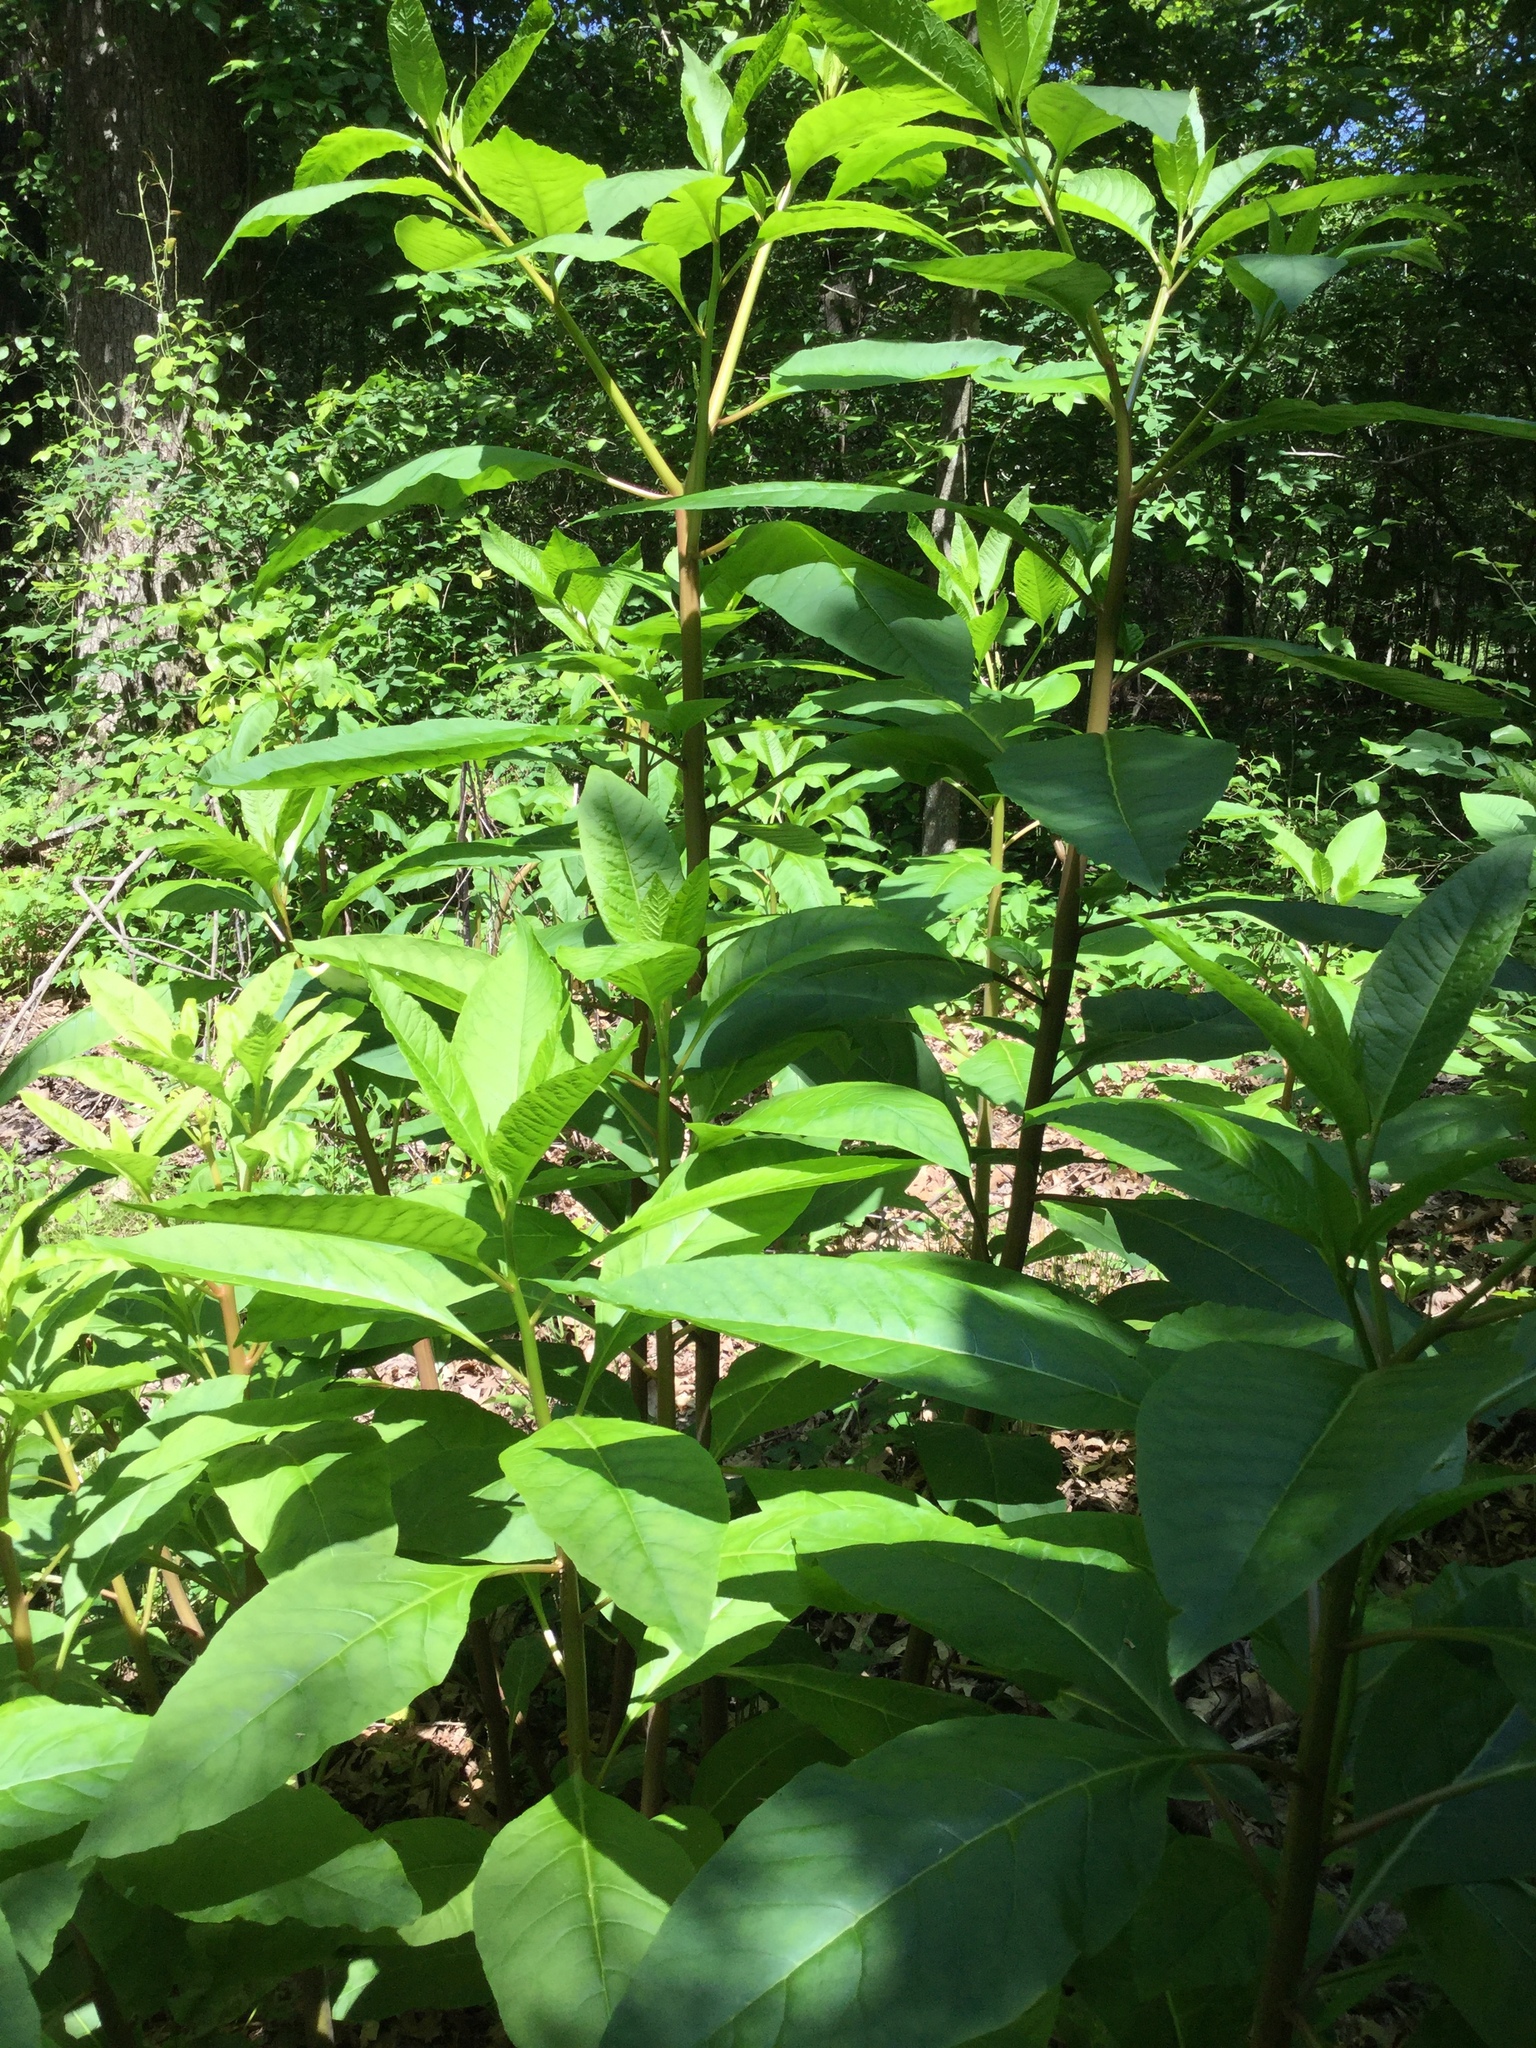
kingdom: Plantae
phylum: Tracheophyta
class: Magnoliopsida
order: Caryophyllales
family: Phytolaccaceae
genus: Phytolacca
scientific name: Phytolacca americana
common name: American pokeweed
